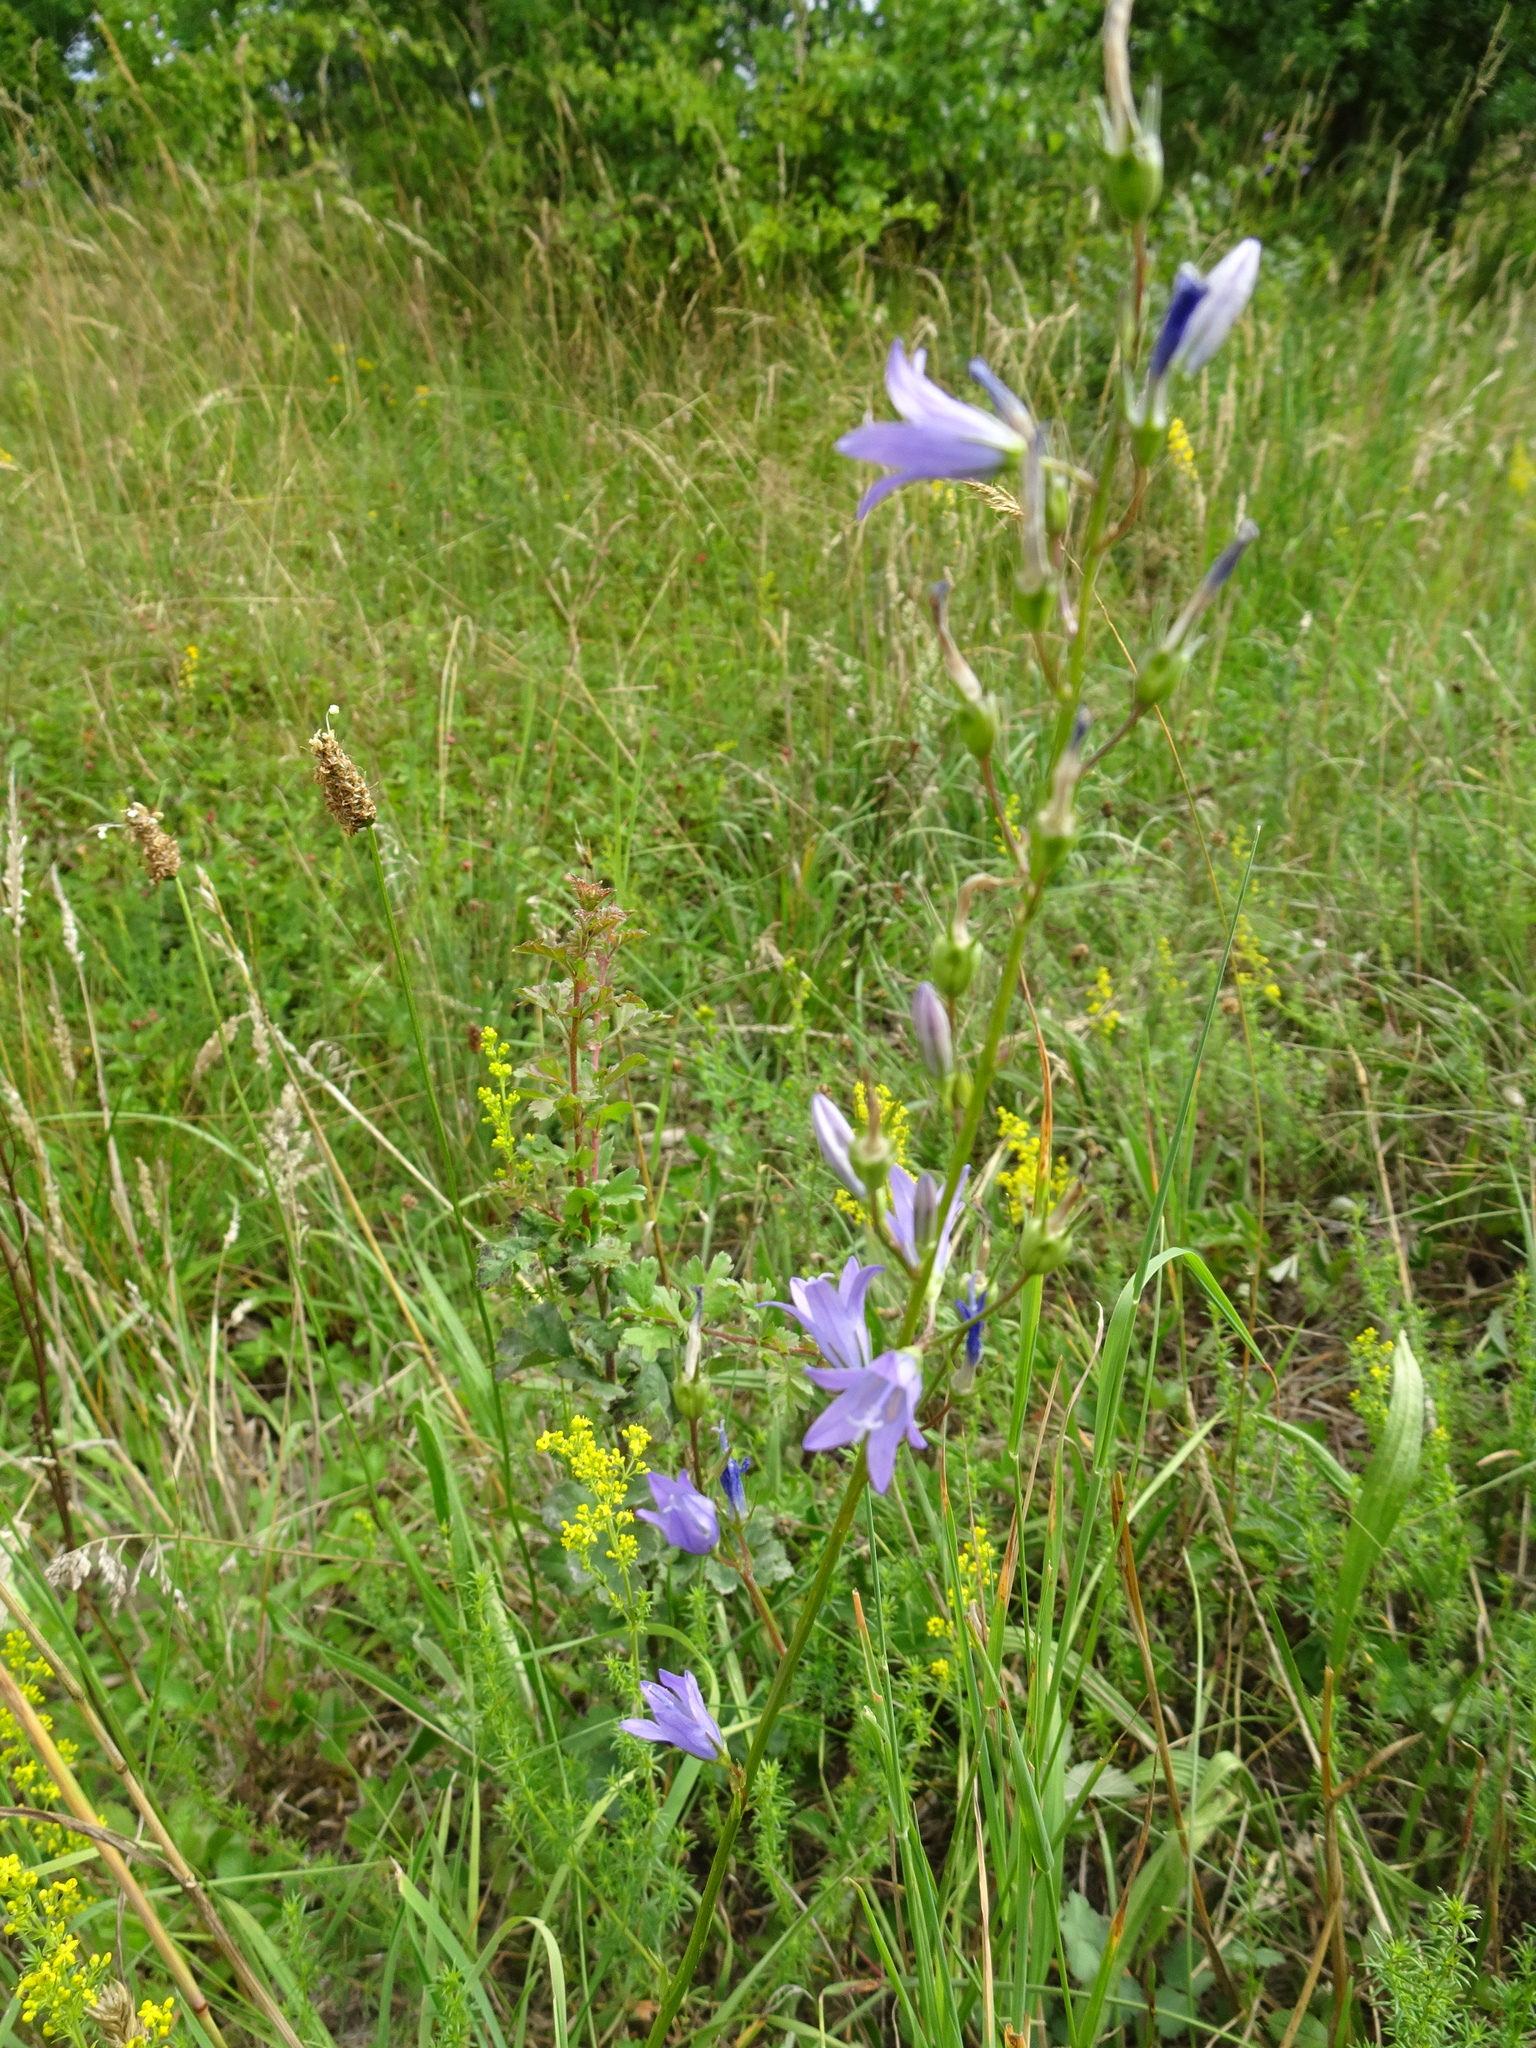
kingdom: Plantae
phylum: Tracheophyta
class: Magnoliopsida
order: Asterales
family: Campanulaceae
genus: Campanula
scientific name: Campanula rapunculus
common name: Rampion bellflower
